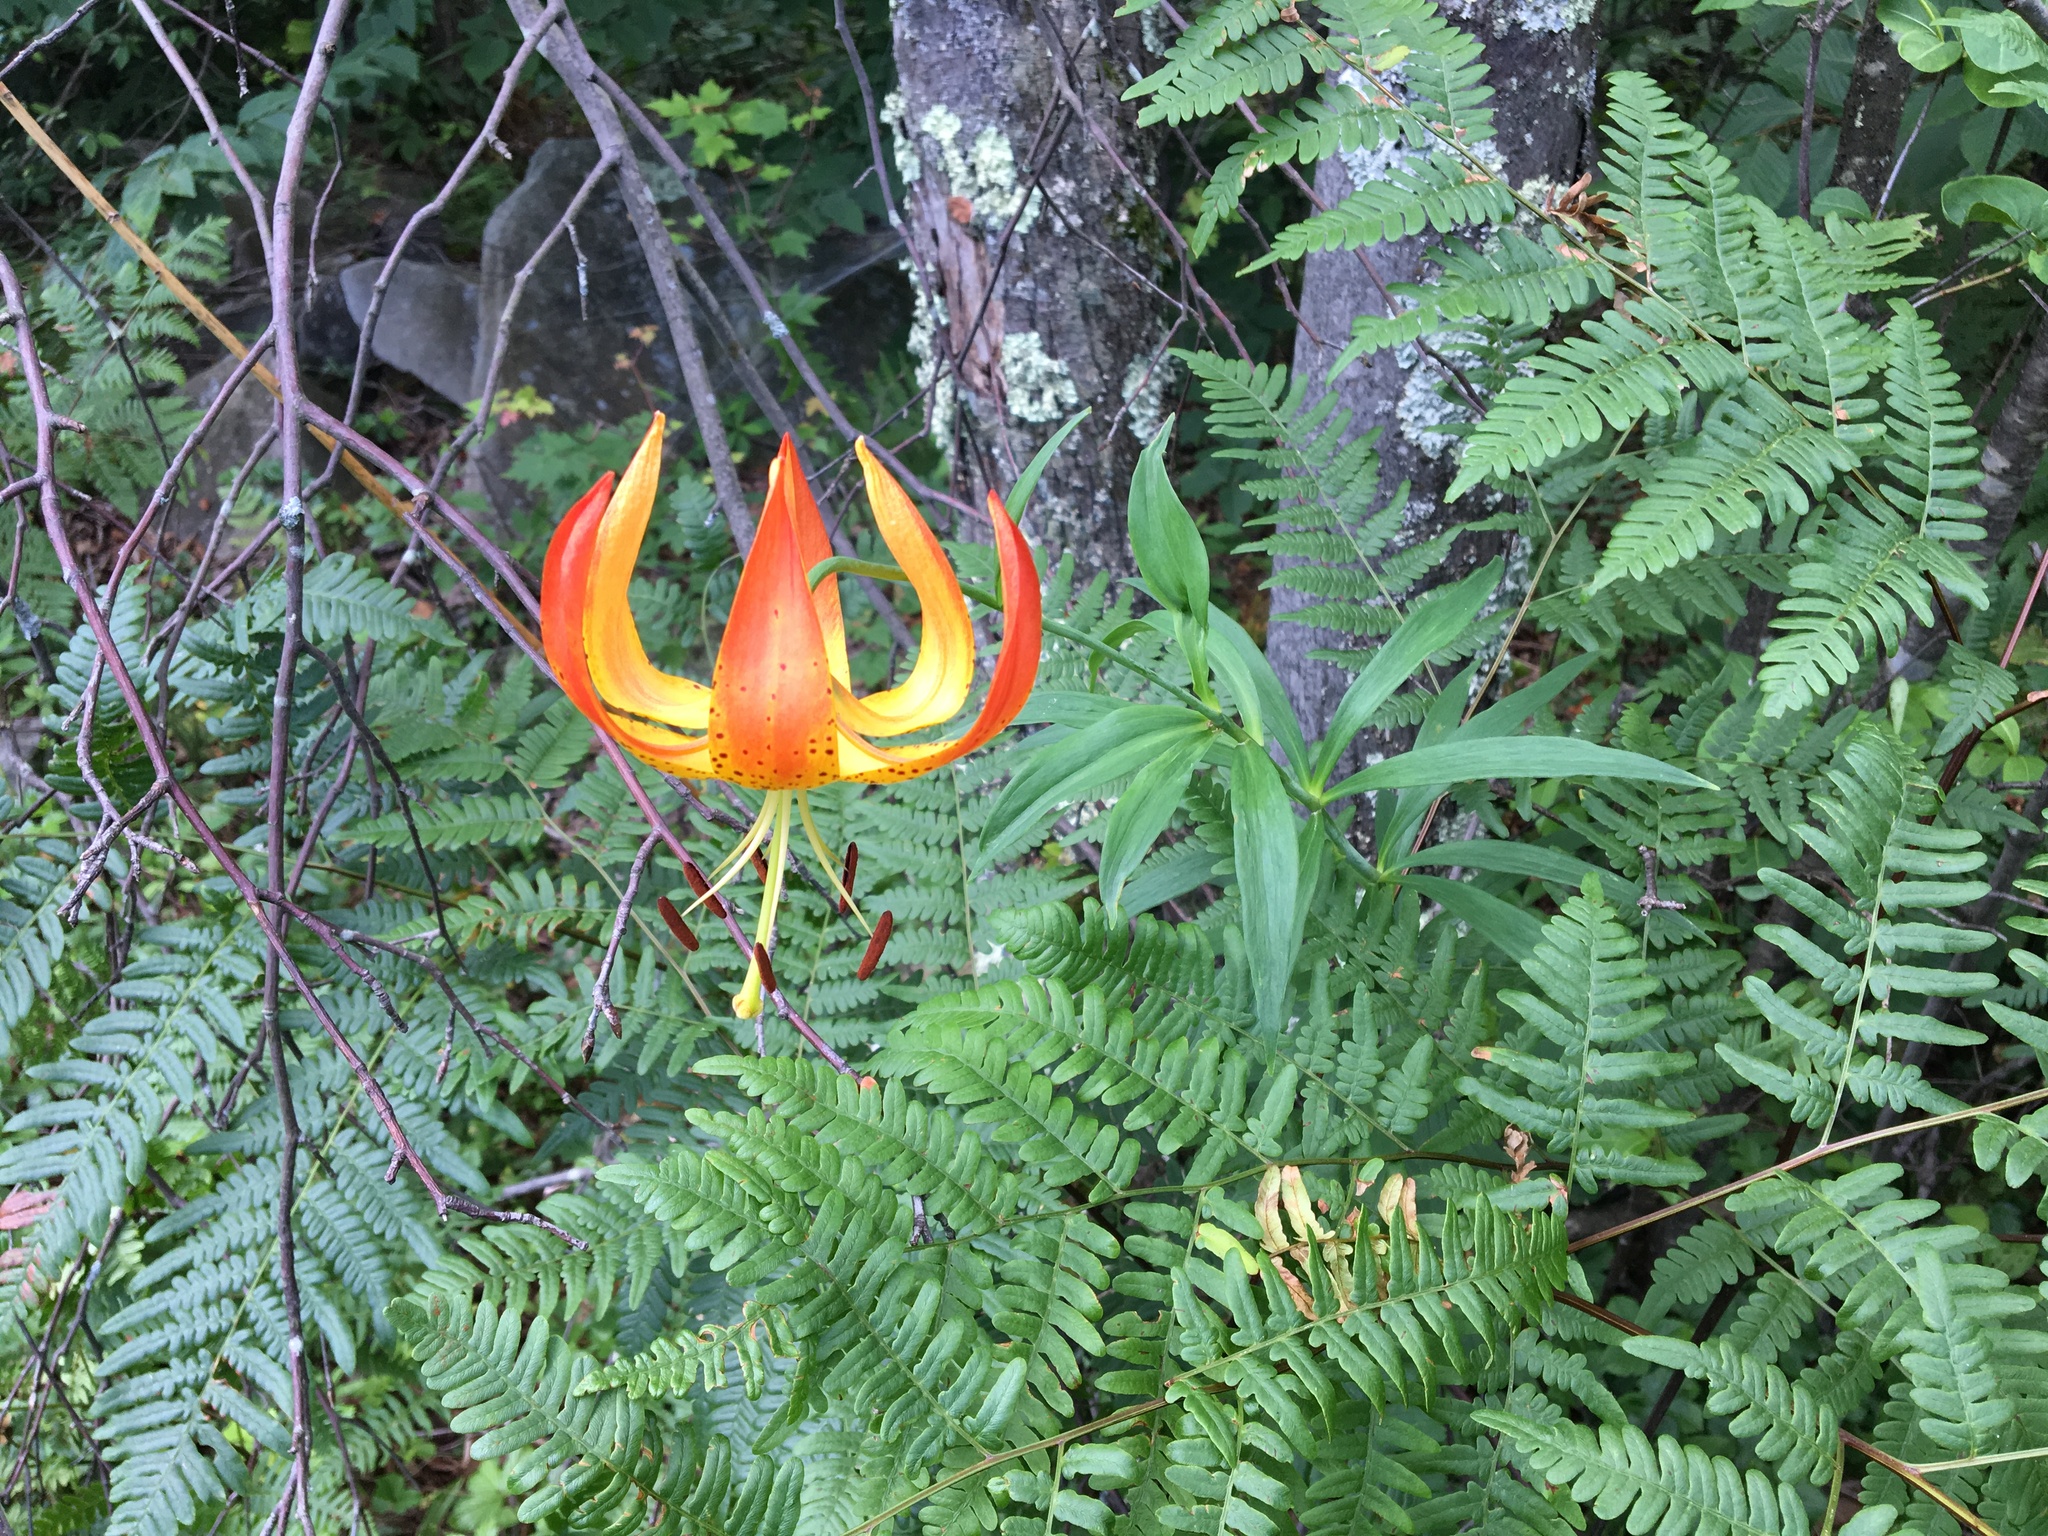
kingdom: Plantae
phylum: Tracheophyta
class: Liliopsida
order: Liliales
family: Liliaceae
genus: Lilium
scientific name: Lilium superbum
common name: American turk's-cap lily
